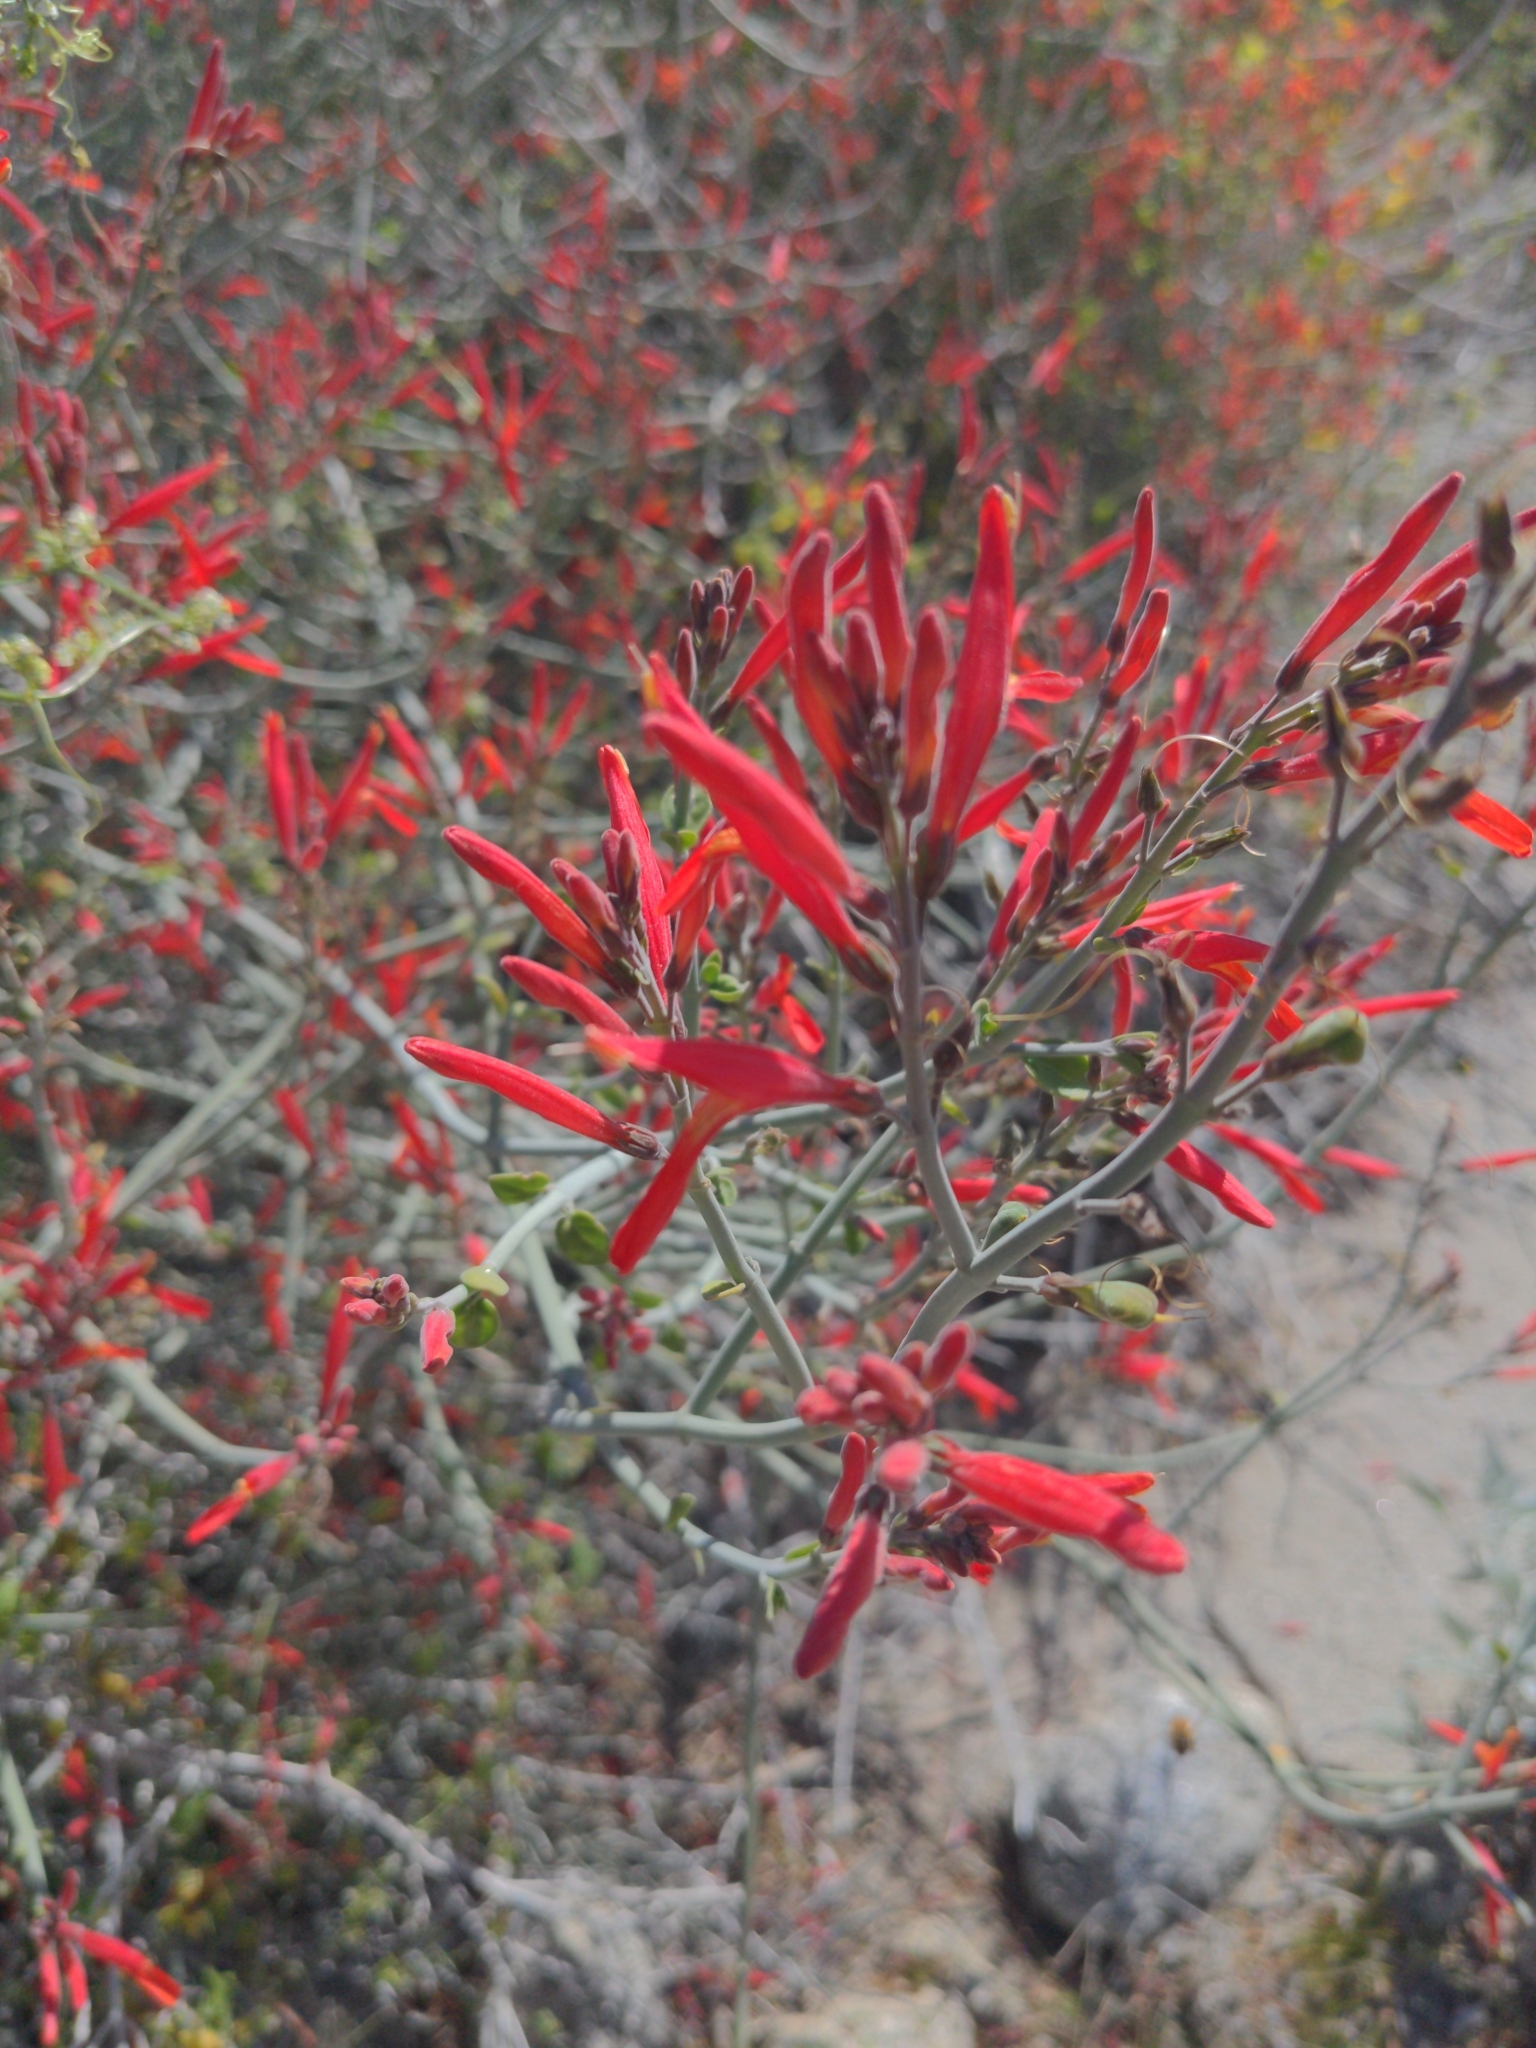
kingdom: Plantae
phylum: Tracheophyta
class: Magnoliopsida
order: Lamiales
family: Acanthaceae
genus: Justicia
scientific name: Justicia californica
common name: Chuparosa-honeysuckle
